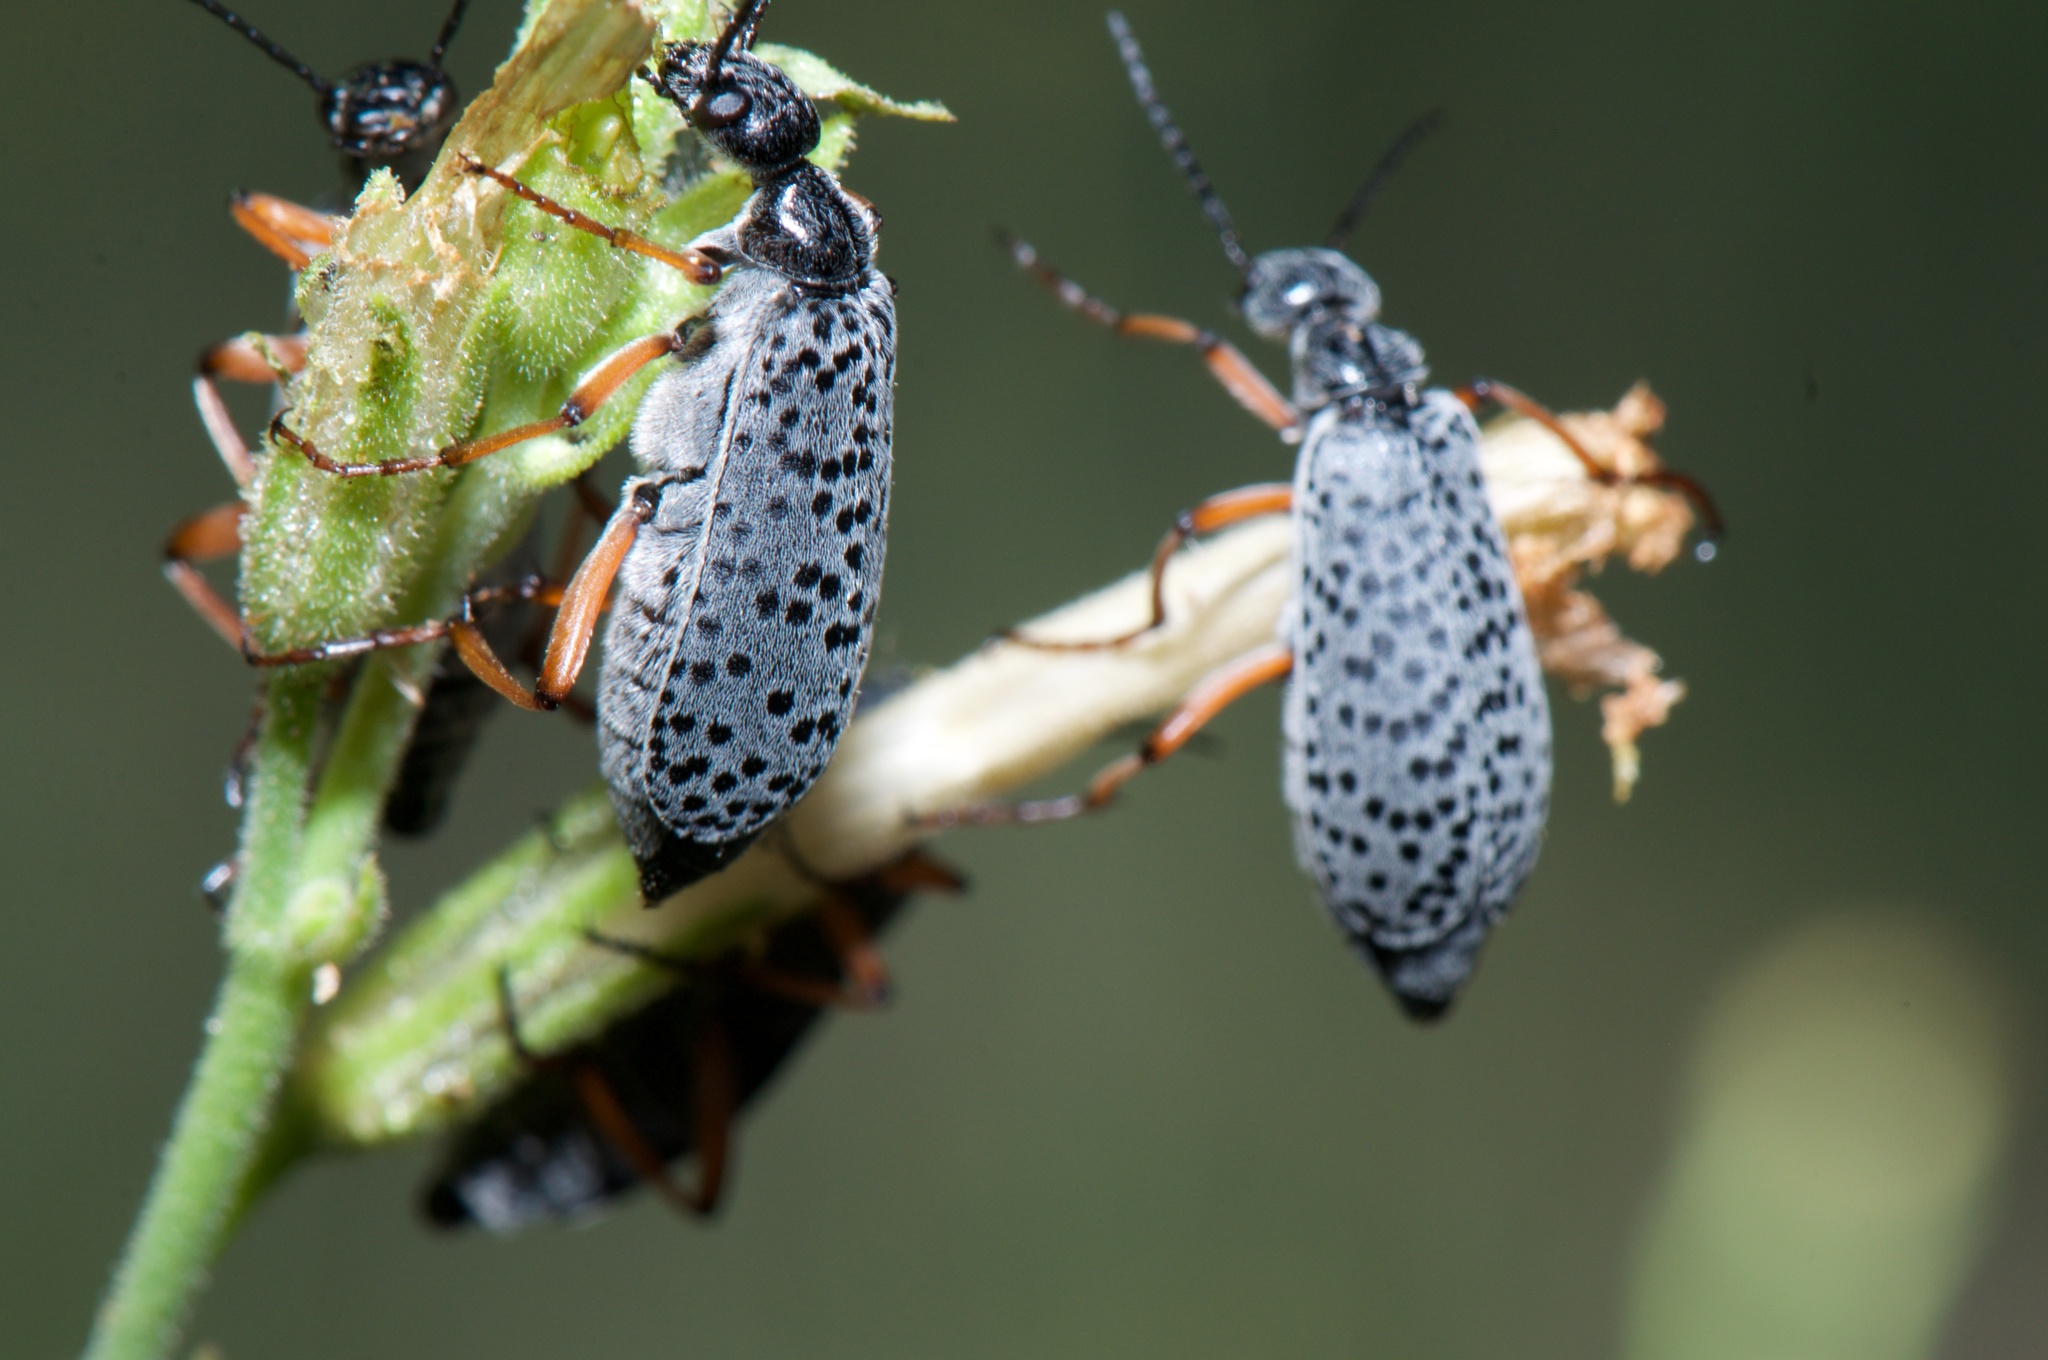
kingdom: Animalia
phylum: Arthropoda
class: Insecta
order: Coleoptera
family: Meloidae
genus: Epicauta
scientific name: Epicauta
